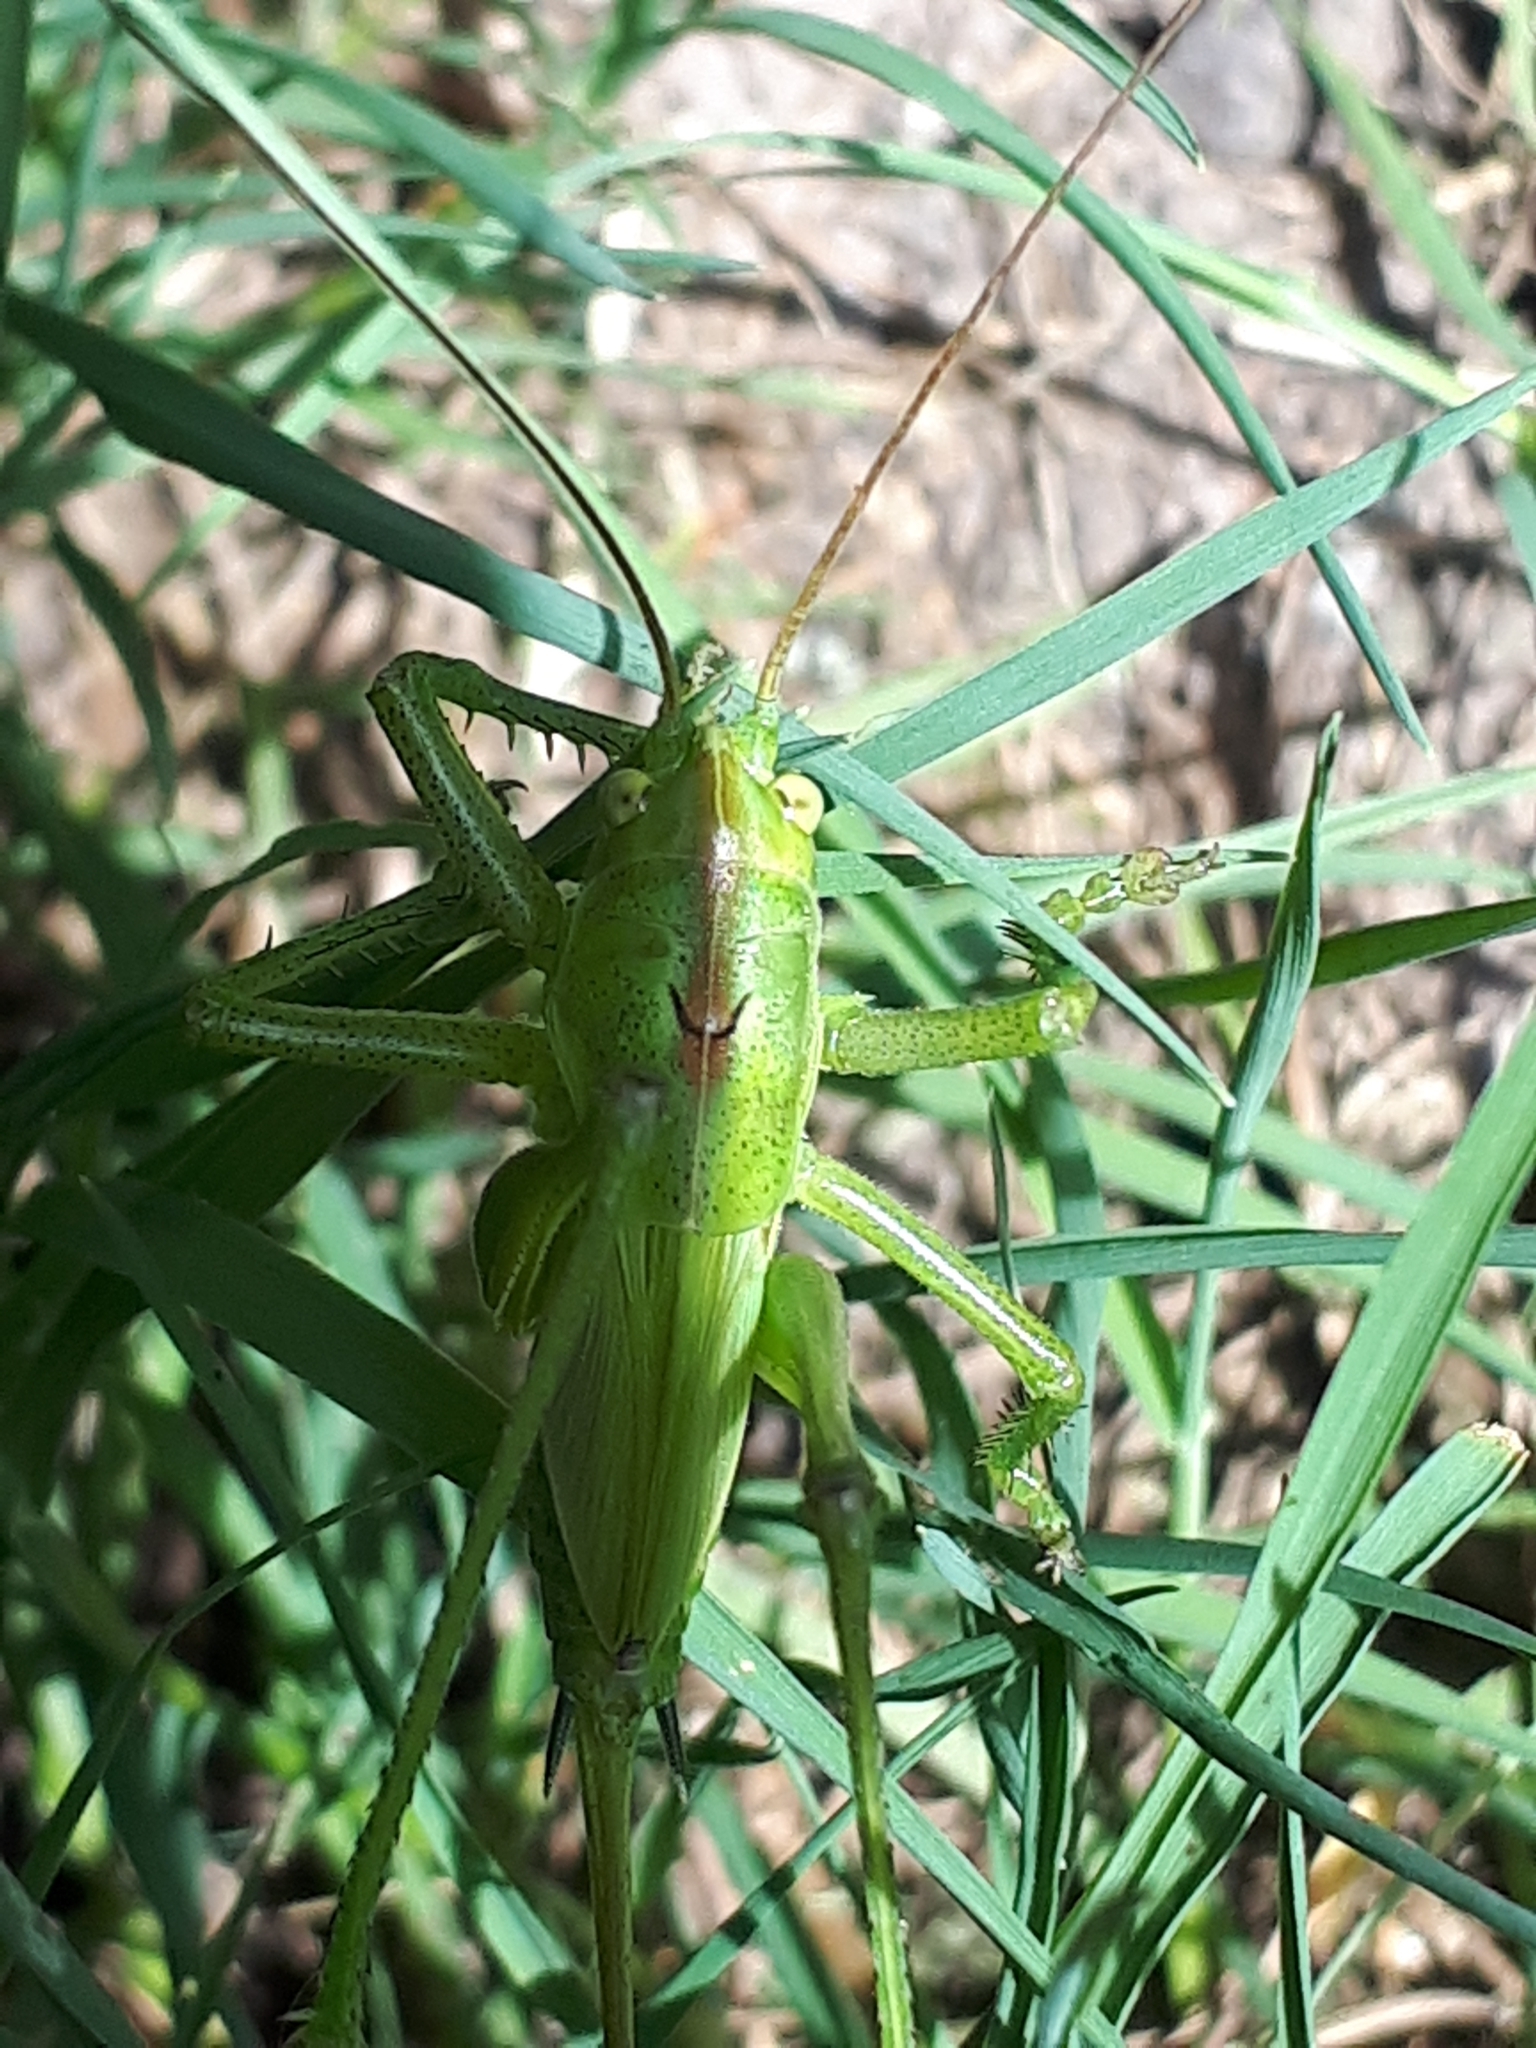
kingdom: Animalia
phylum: Arthropoda
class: Insecta
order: Orthoptera
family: Tettigoniidae
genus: Tettigonia
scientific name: Tettigonia viridissima
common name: Great green bush-cricket
